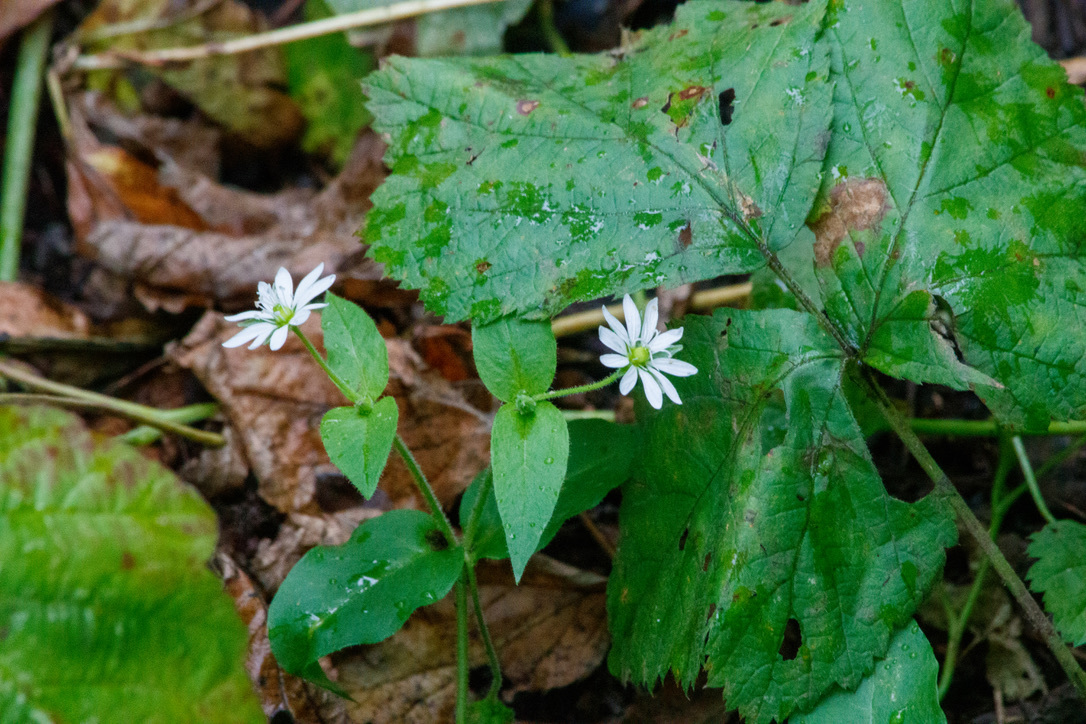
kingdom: Plantae
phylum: Tracheophyta
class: Magnoliopsida
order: Caryophyllales
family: Caryophyllaceae
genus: Stellaria
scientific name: Stellaria aquatica
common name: Water chickweed
